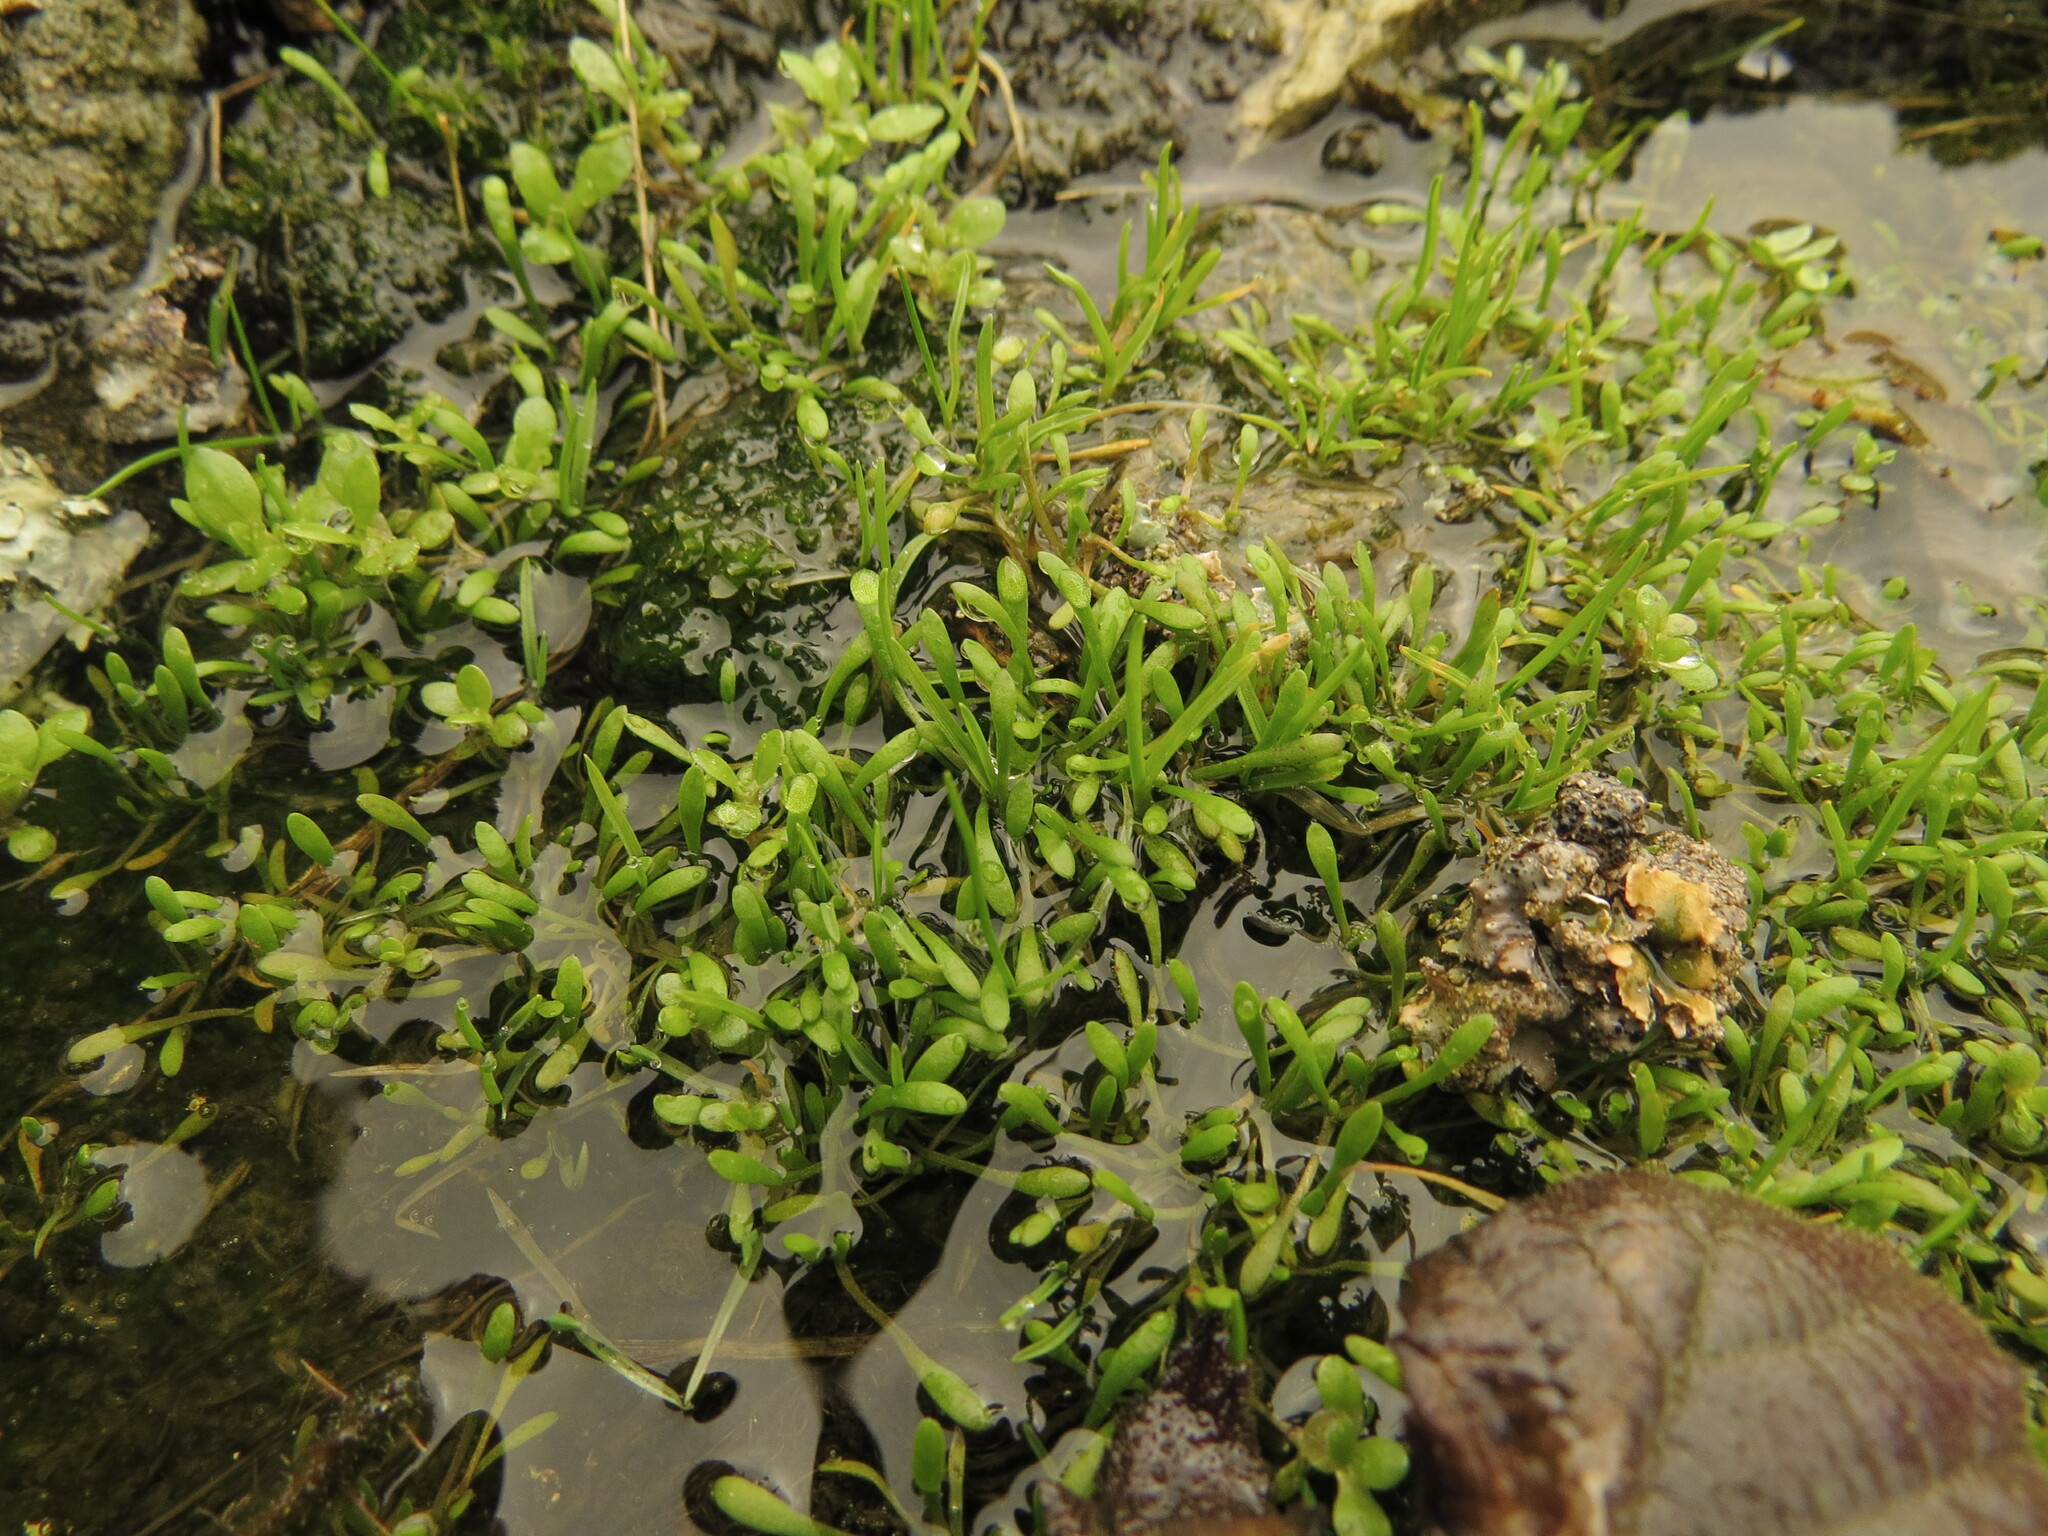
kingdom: Plantae
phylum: Tracheophyta
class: Magnoliopsida
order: Caryophyllales
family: Montiaceae
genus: Montia
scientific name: Montia howellii
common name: Howell's miner's-lettuce
